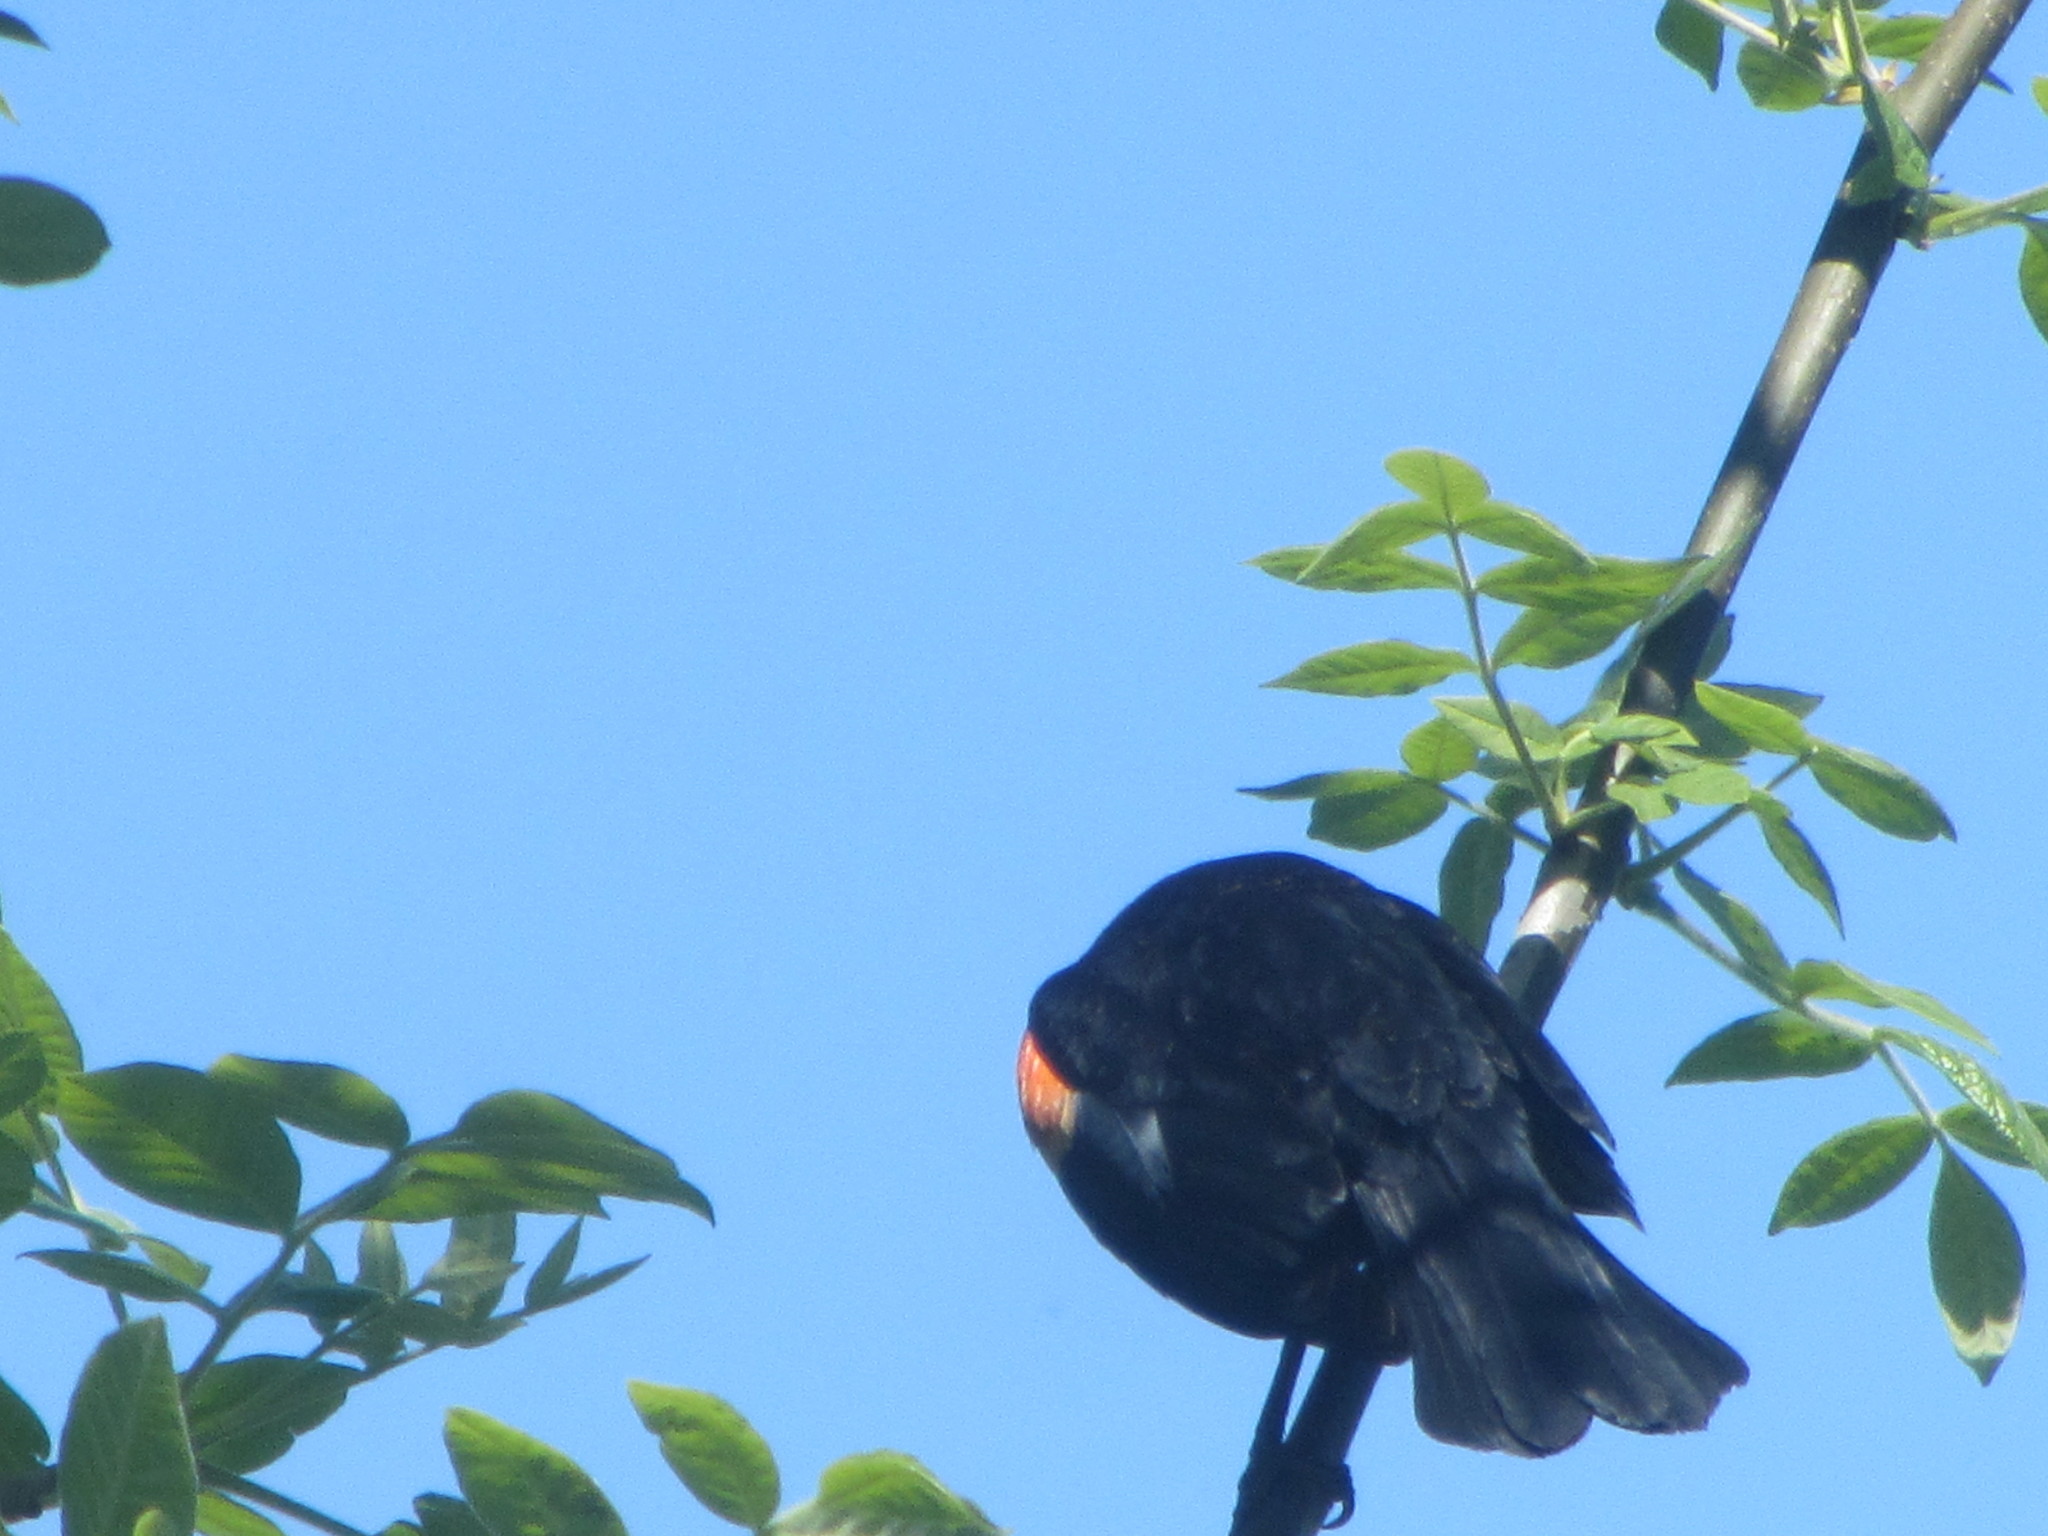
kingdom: Animalia
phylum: Chordata
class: Aves
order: Passeriformes
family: Icteridae
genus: Agelaius
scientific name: Agelaius phoeniceus
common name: Red-winged blackbird
